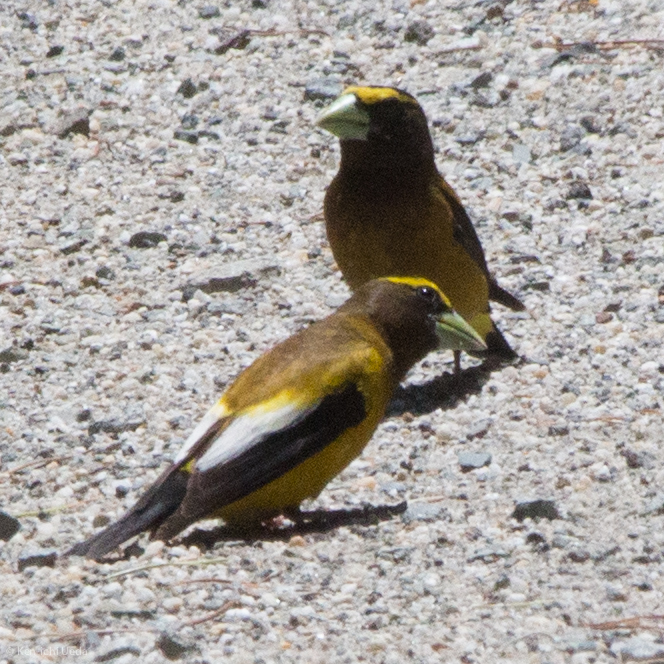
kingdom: Animalia
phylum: Chordata
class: Aves
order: Passeriformes
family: Fringillidae
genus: Hesperiphona
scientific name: Hesperiphona vespertina
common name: Evening grosbeak
